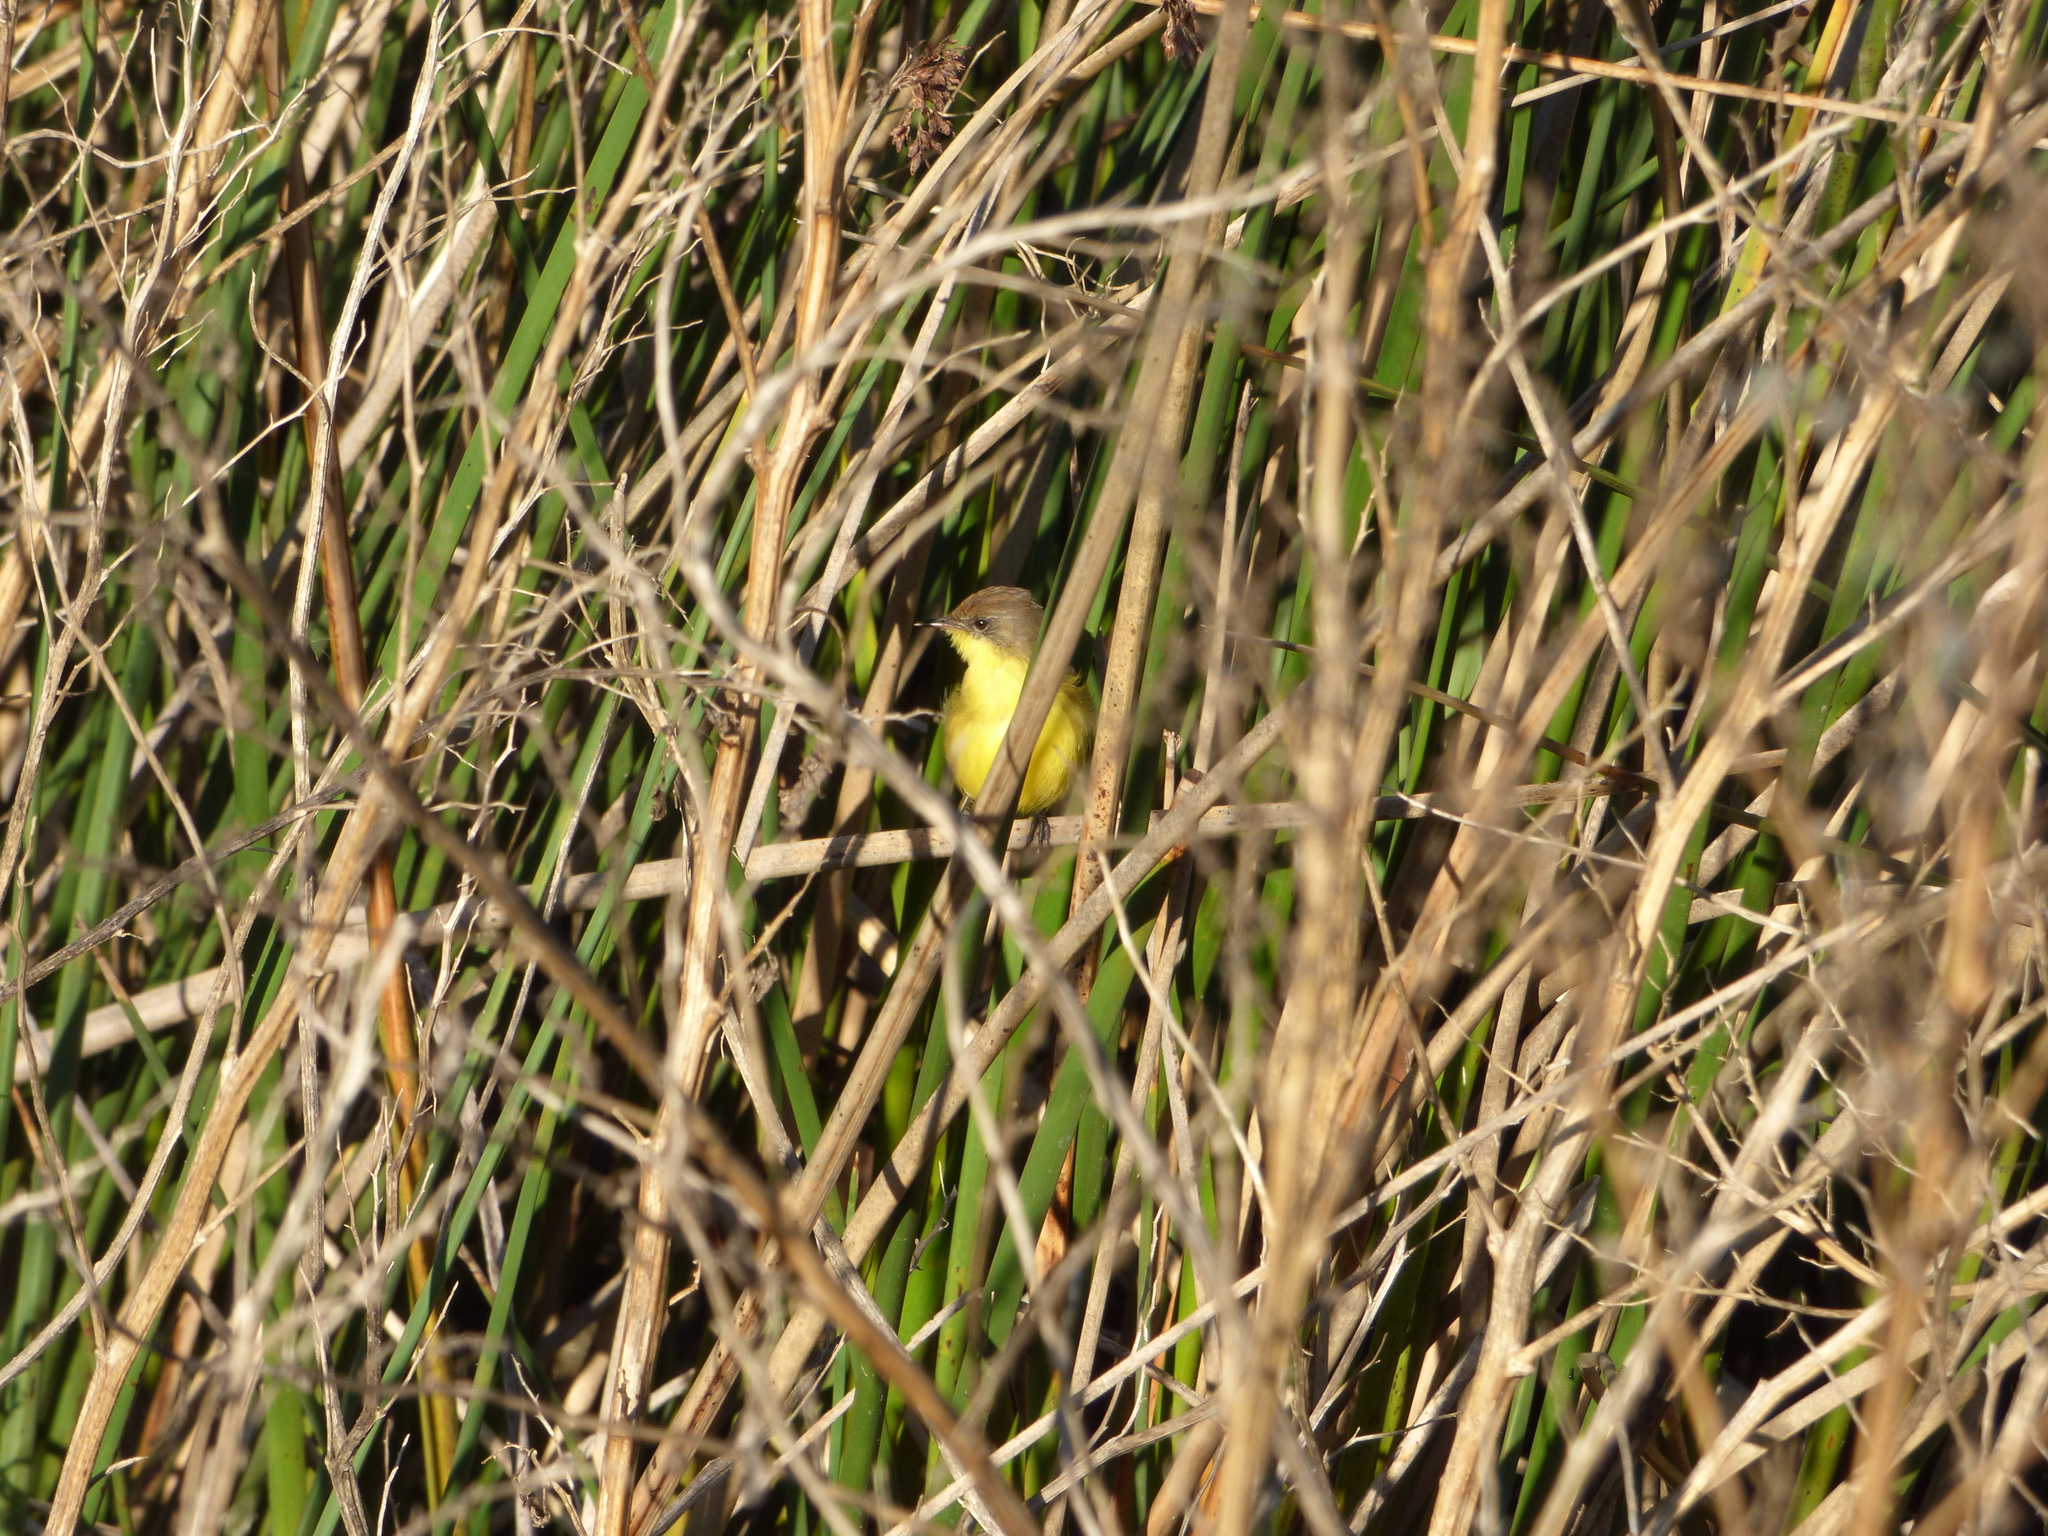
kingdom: Animalia
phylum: Chordata
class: Aves
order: Passeriformes
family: Tyrannidae
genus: Pseudocolopteryx
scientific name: Pseudocolopteryx flaviventris
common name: Warbling doradito
